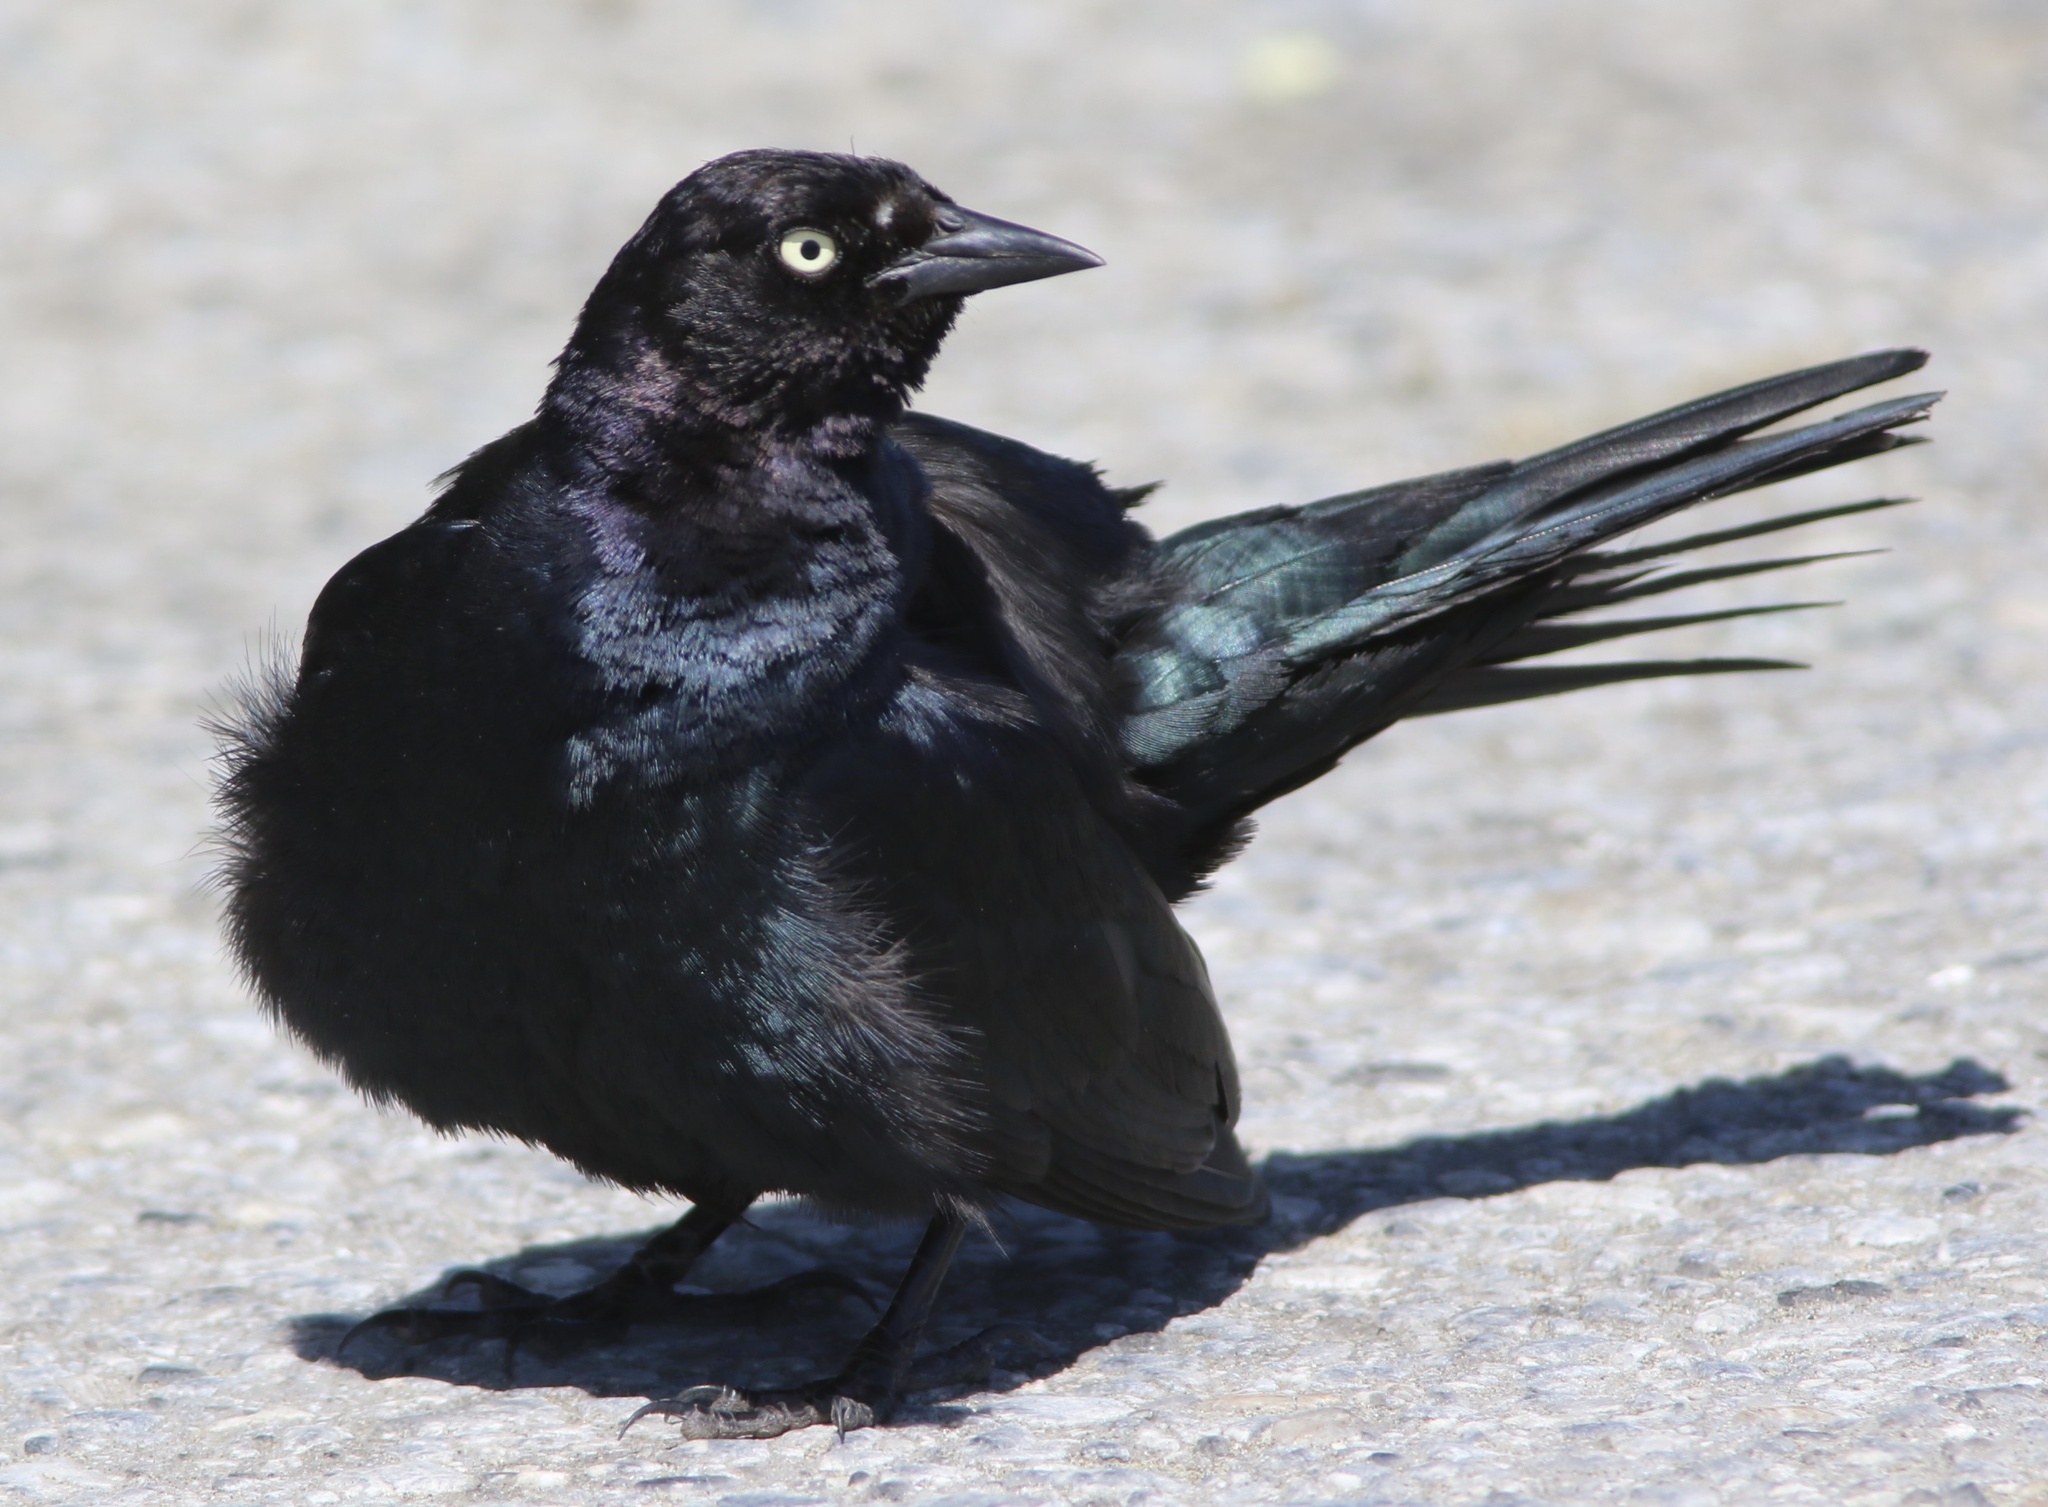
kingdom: Animalia
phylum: Chordata
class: Aves
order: Passeriformes
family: Icteridae
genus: Euphagus
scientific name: Euphagus cyanocephalus
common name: Brewer's blackbird
